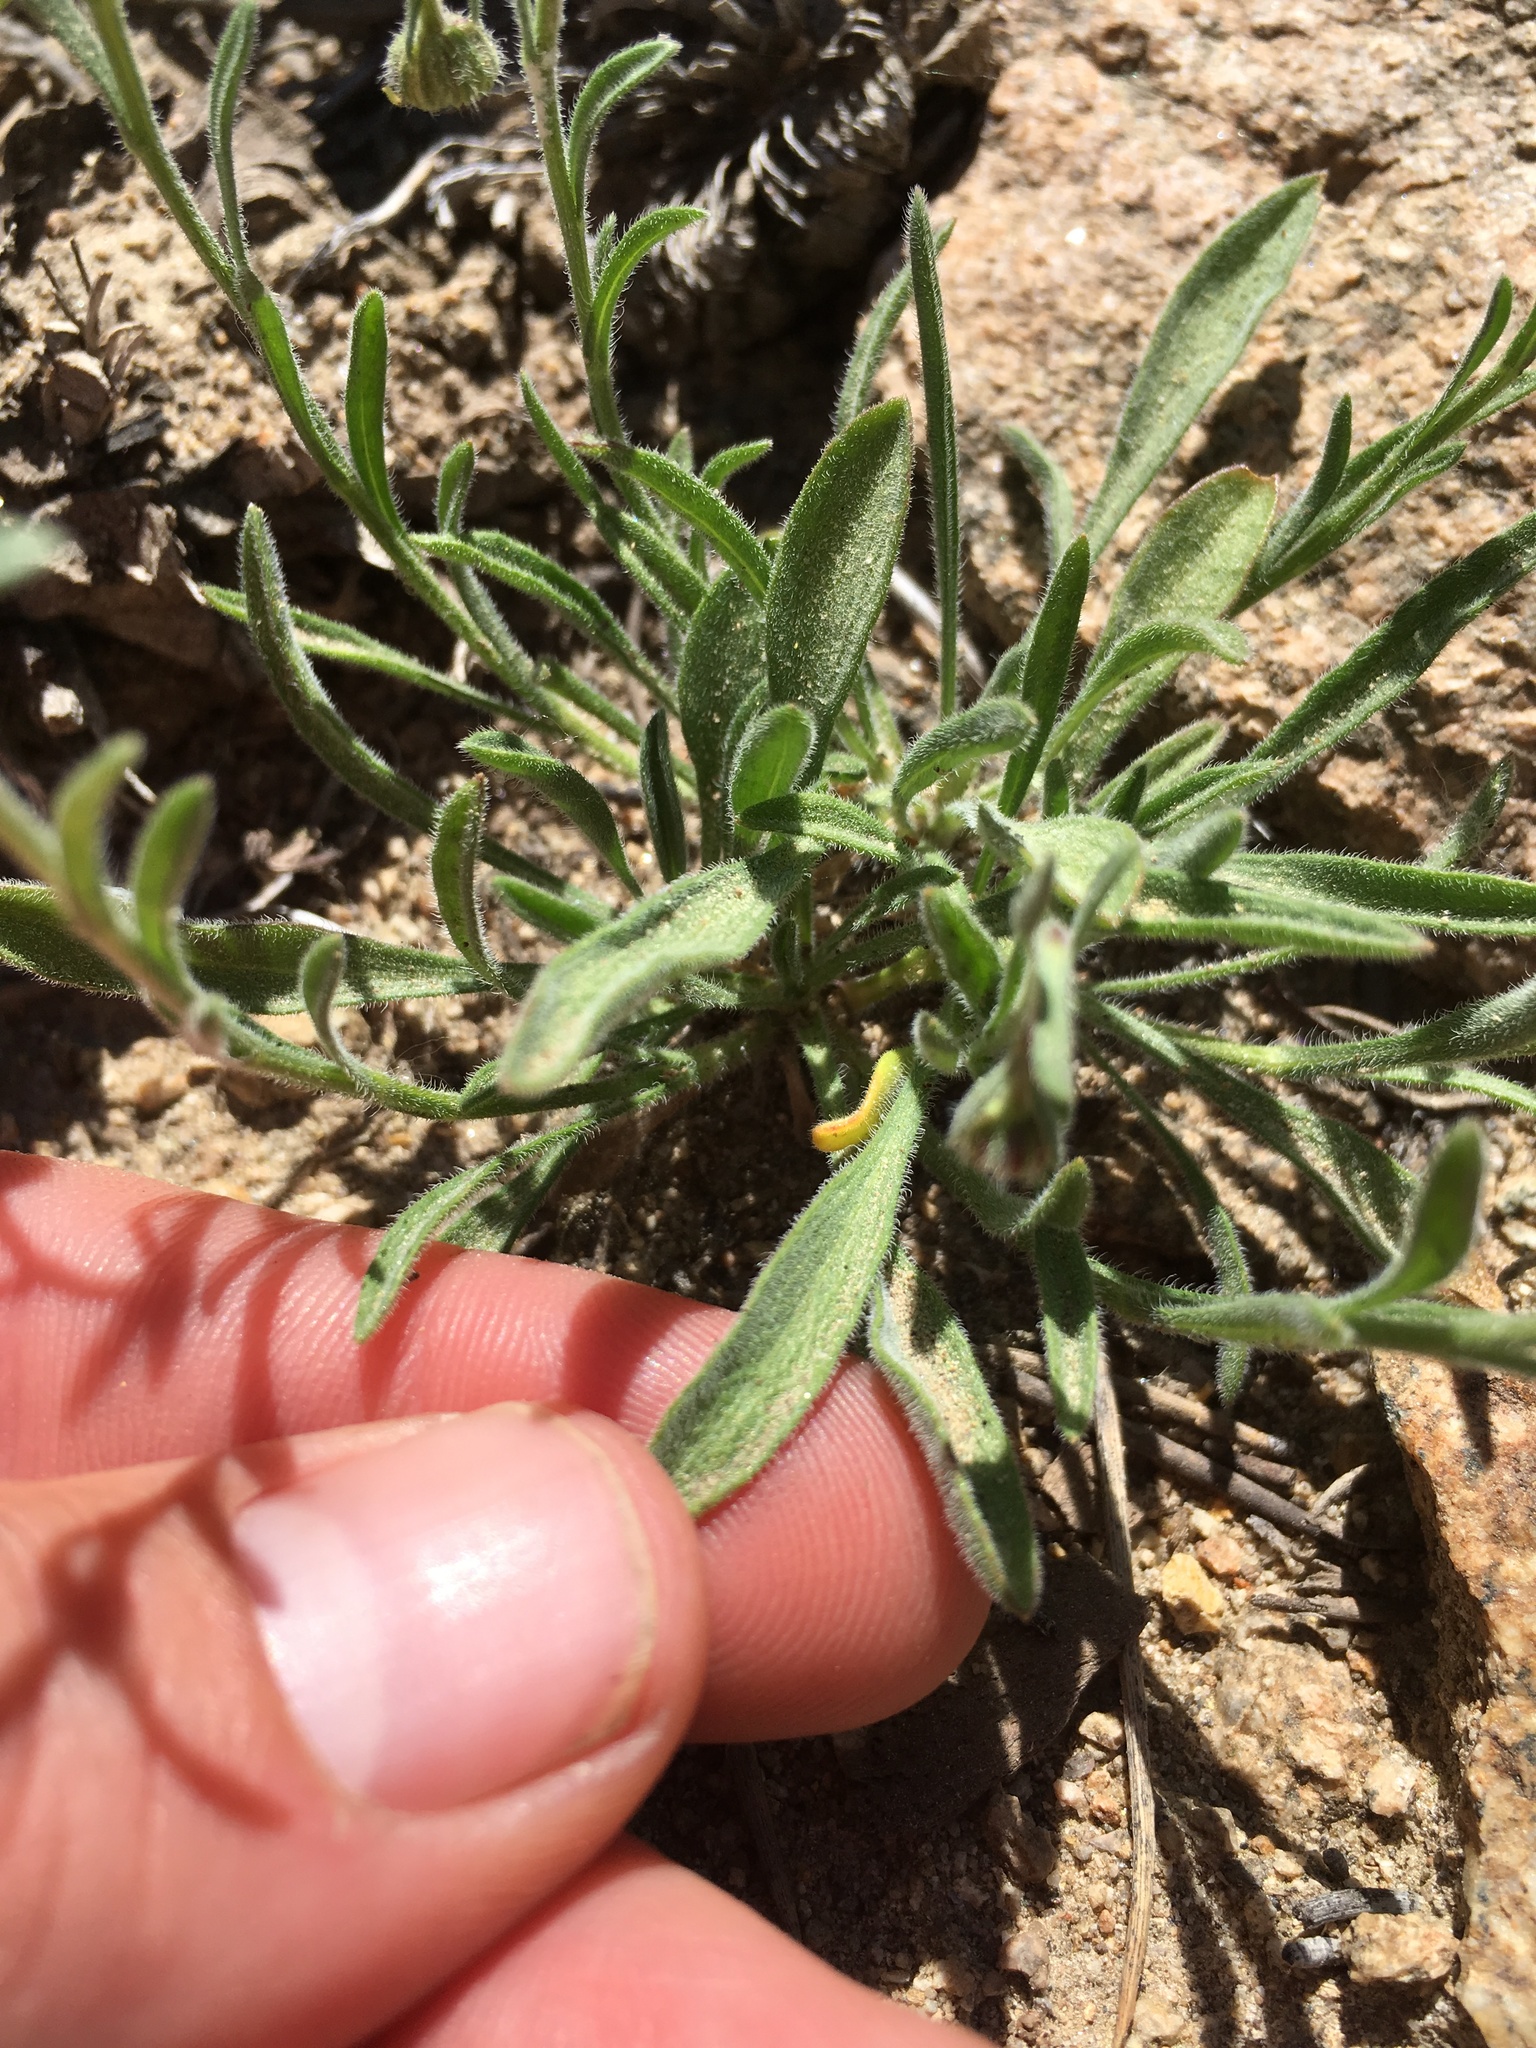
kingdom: Plantae
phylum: Tracheophyta
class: Magnoliopsida
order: Asterales
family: Asteraceae
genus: Erigeron
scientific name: Erigeron clokeyi
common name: Clokey's fleabane
